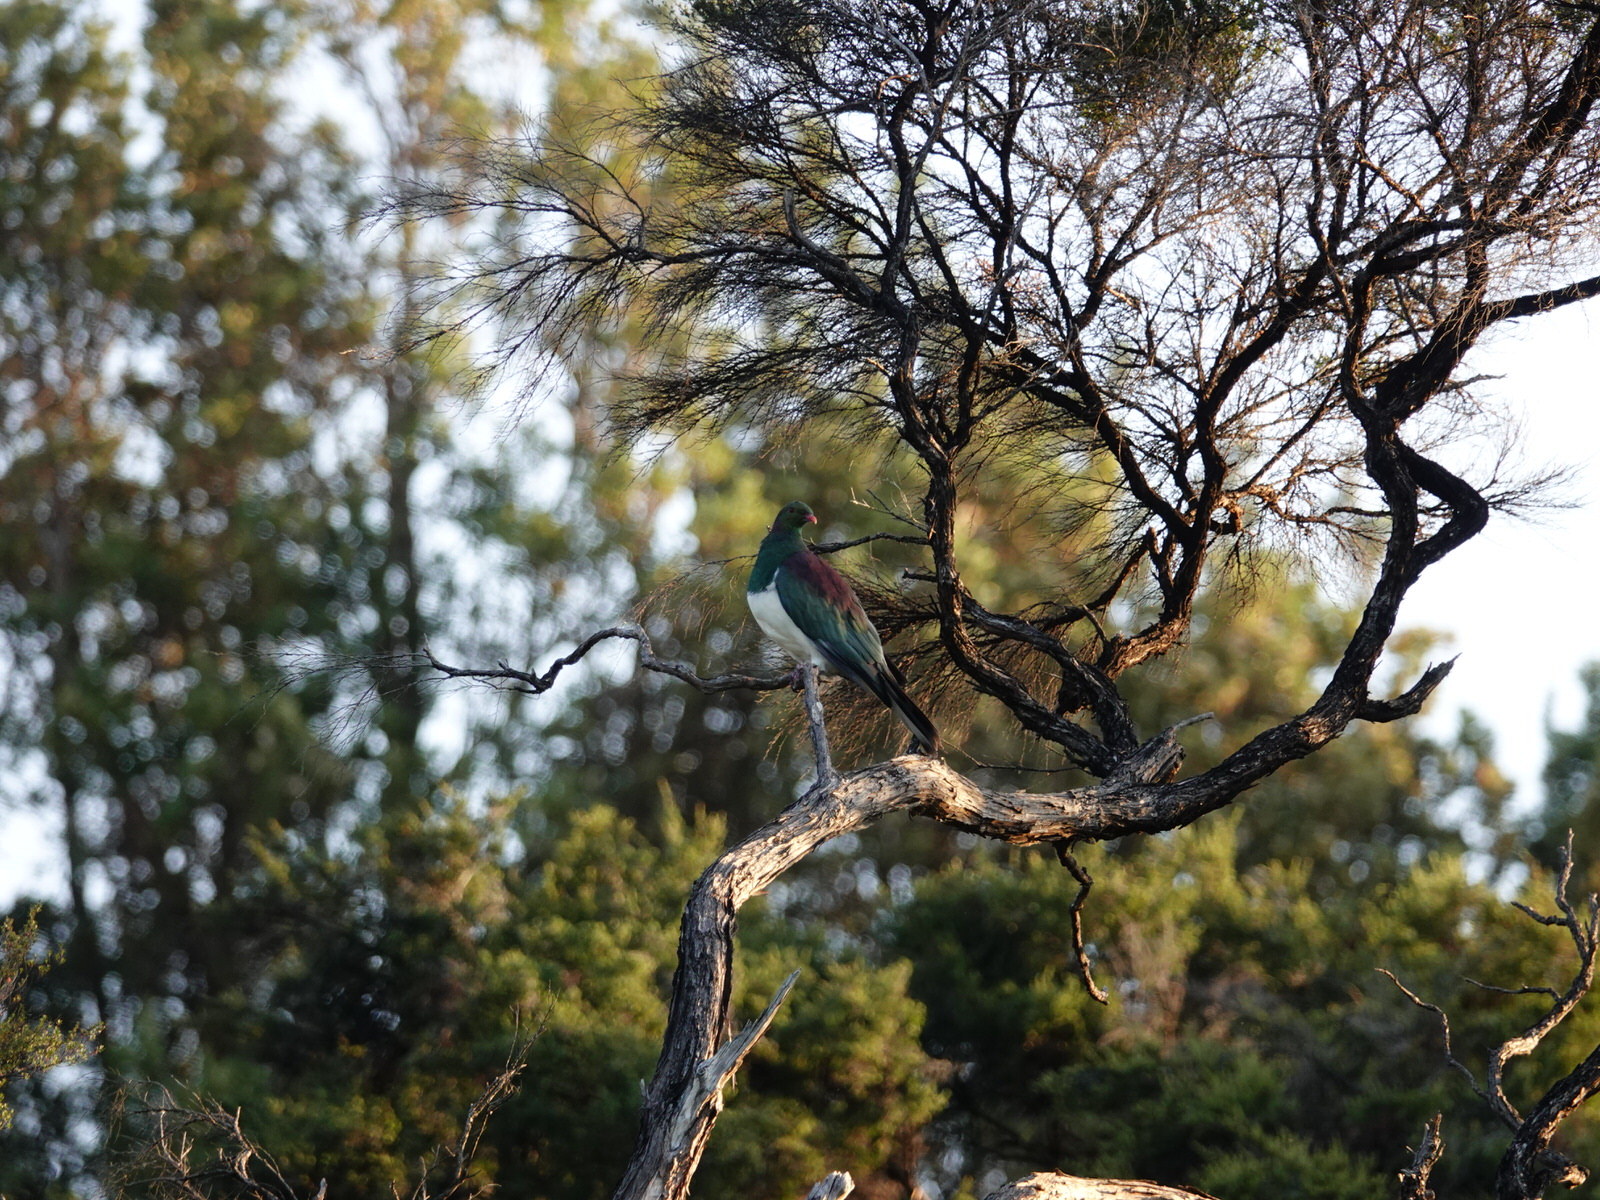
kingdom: Animalia
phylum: Chordata
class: Aves
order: Columbiformes
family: Columbidae
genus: Hemiphaga
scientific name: Hemiphaga novaeseelandiae
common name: New zealand pigeon
